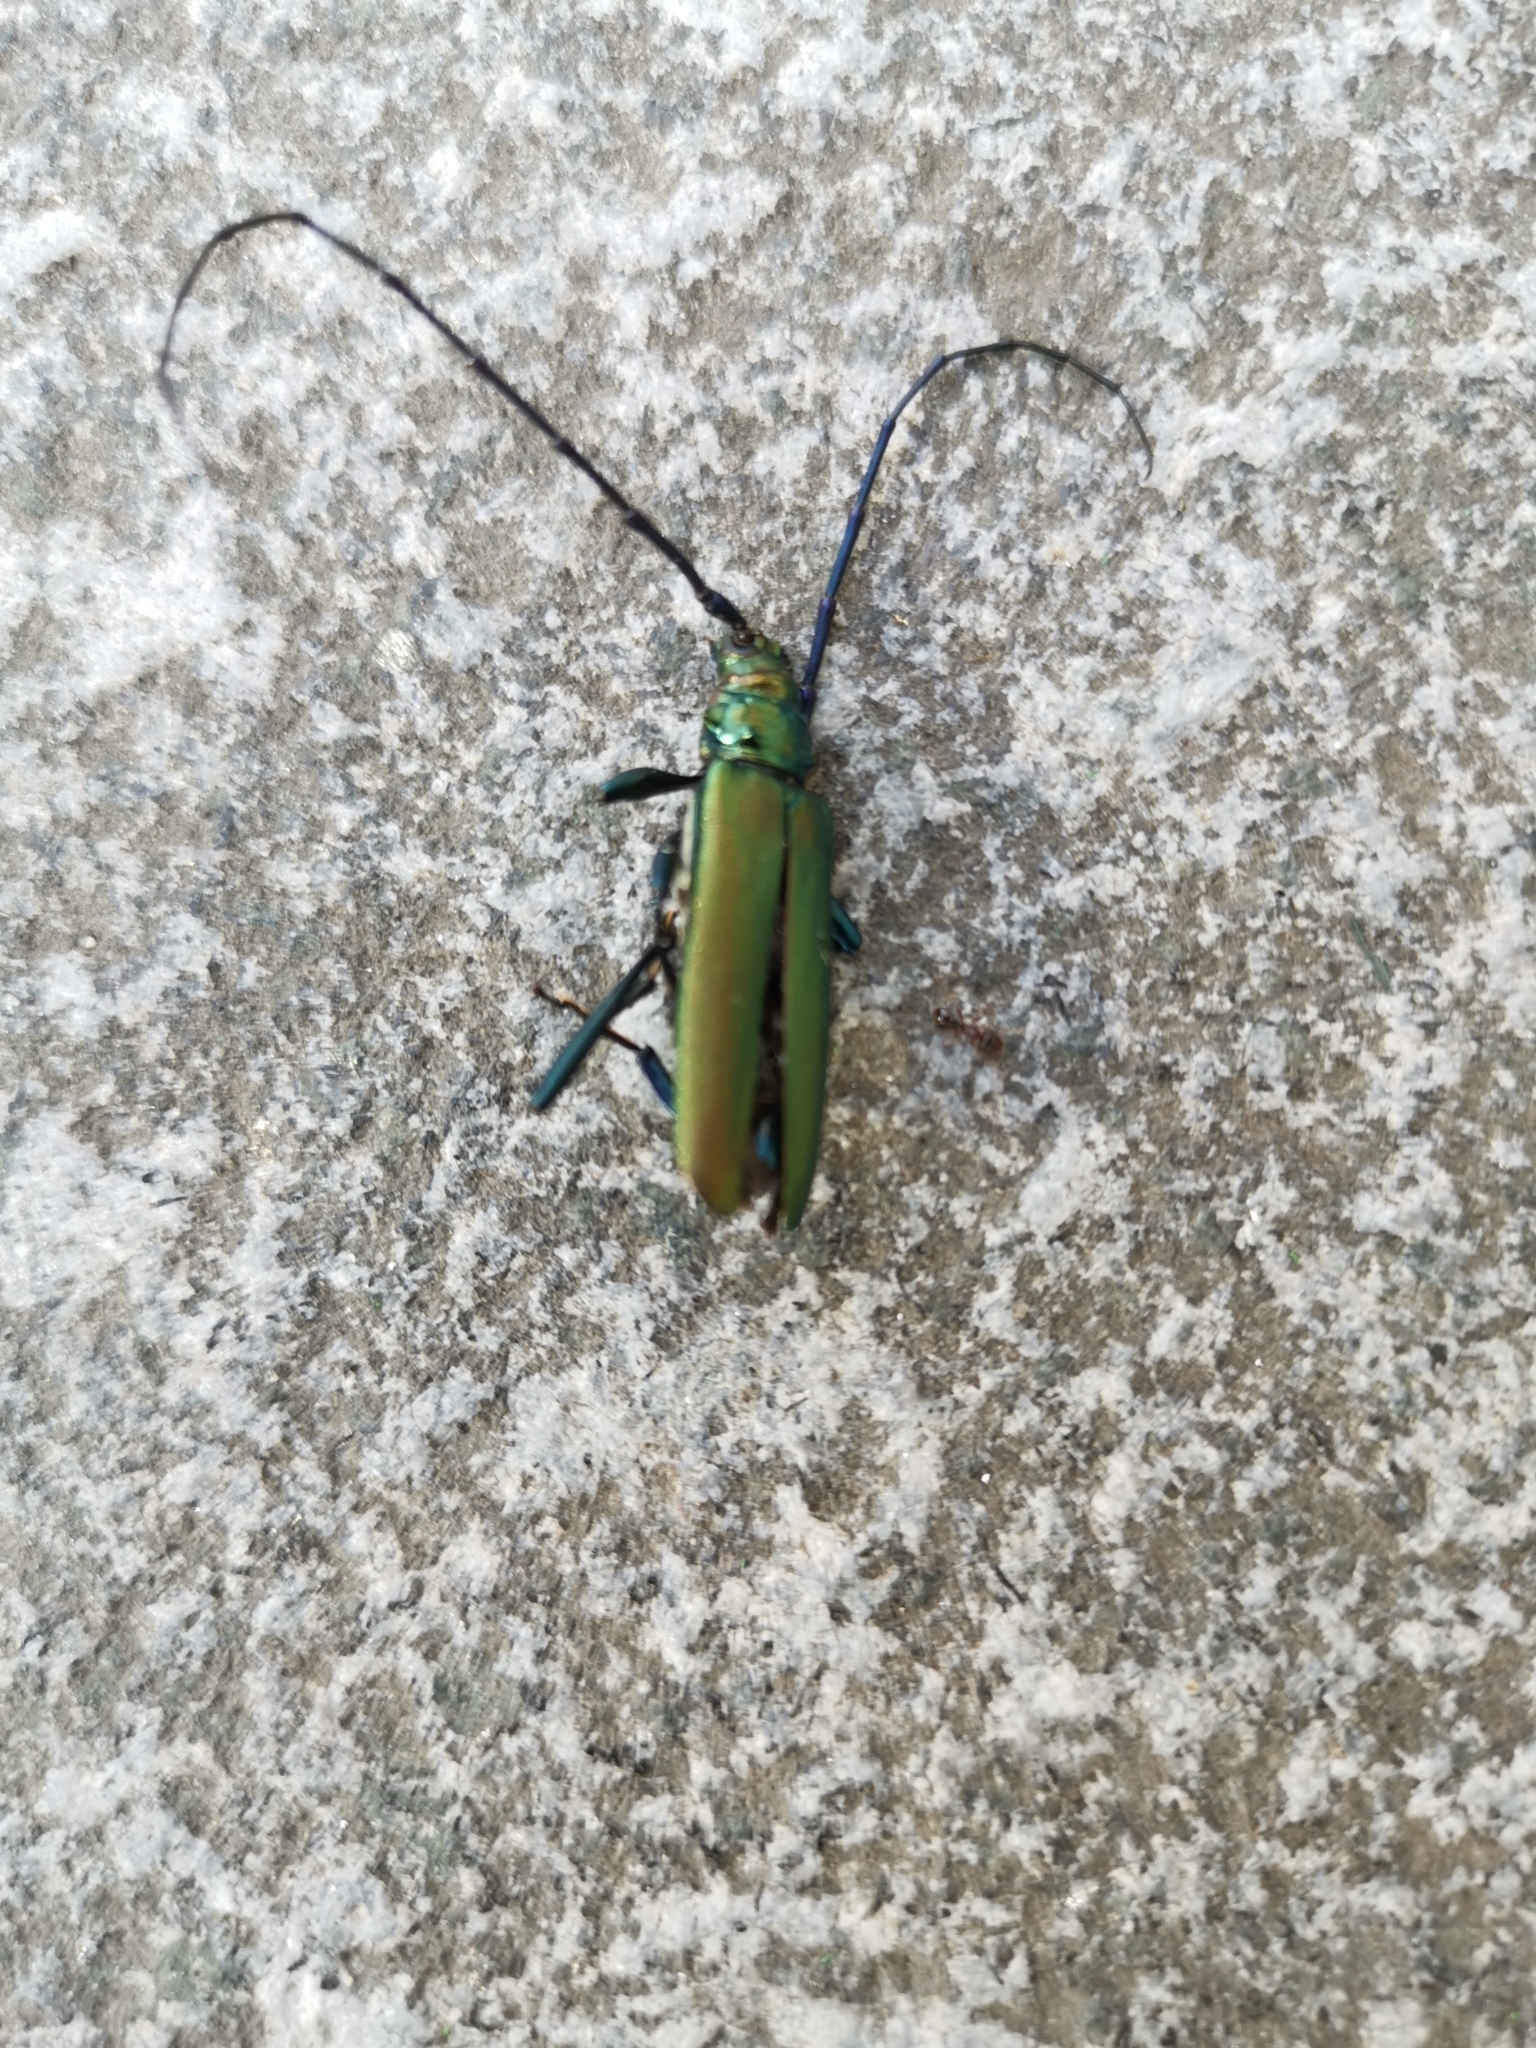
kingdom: Animalia
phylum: Arthropoda
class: Insecta
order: Coleoptera
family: Cerambycidae
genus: Aromia
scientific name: Aromia moschata
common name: Musk beetle
